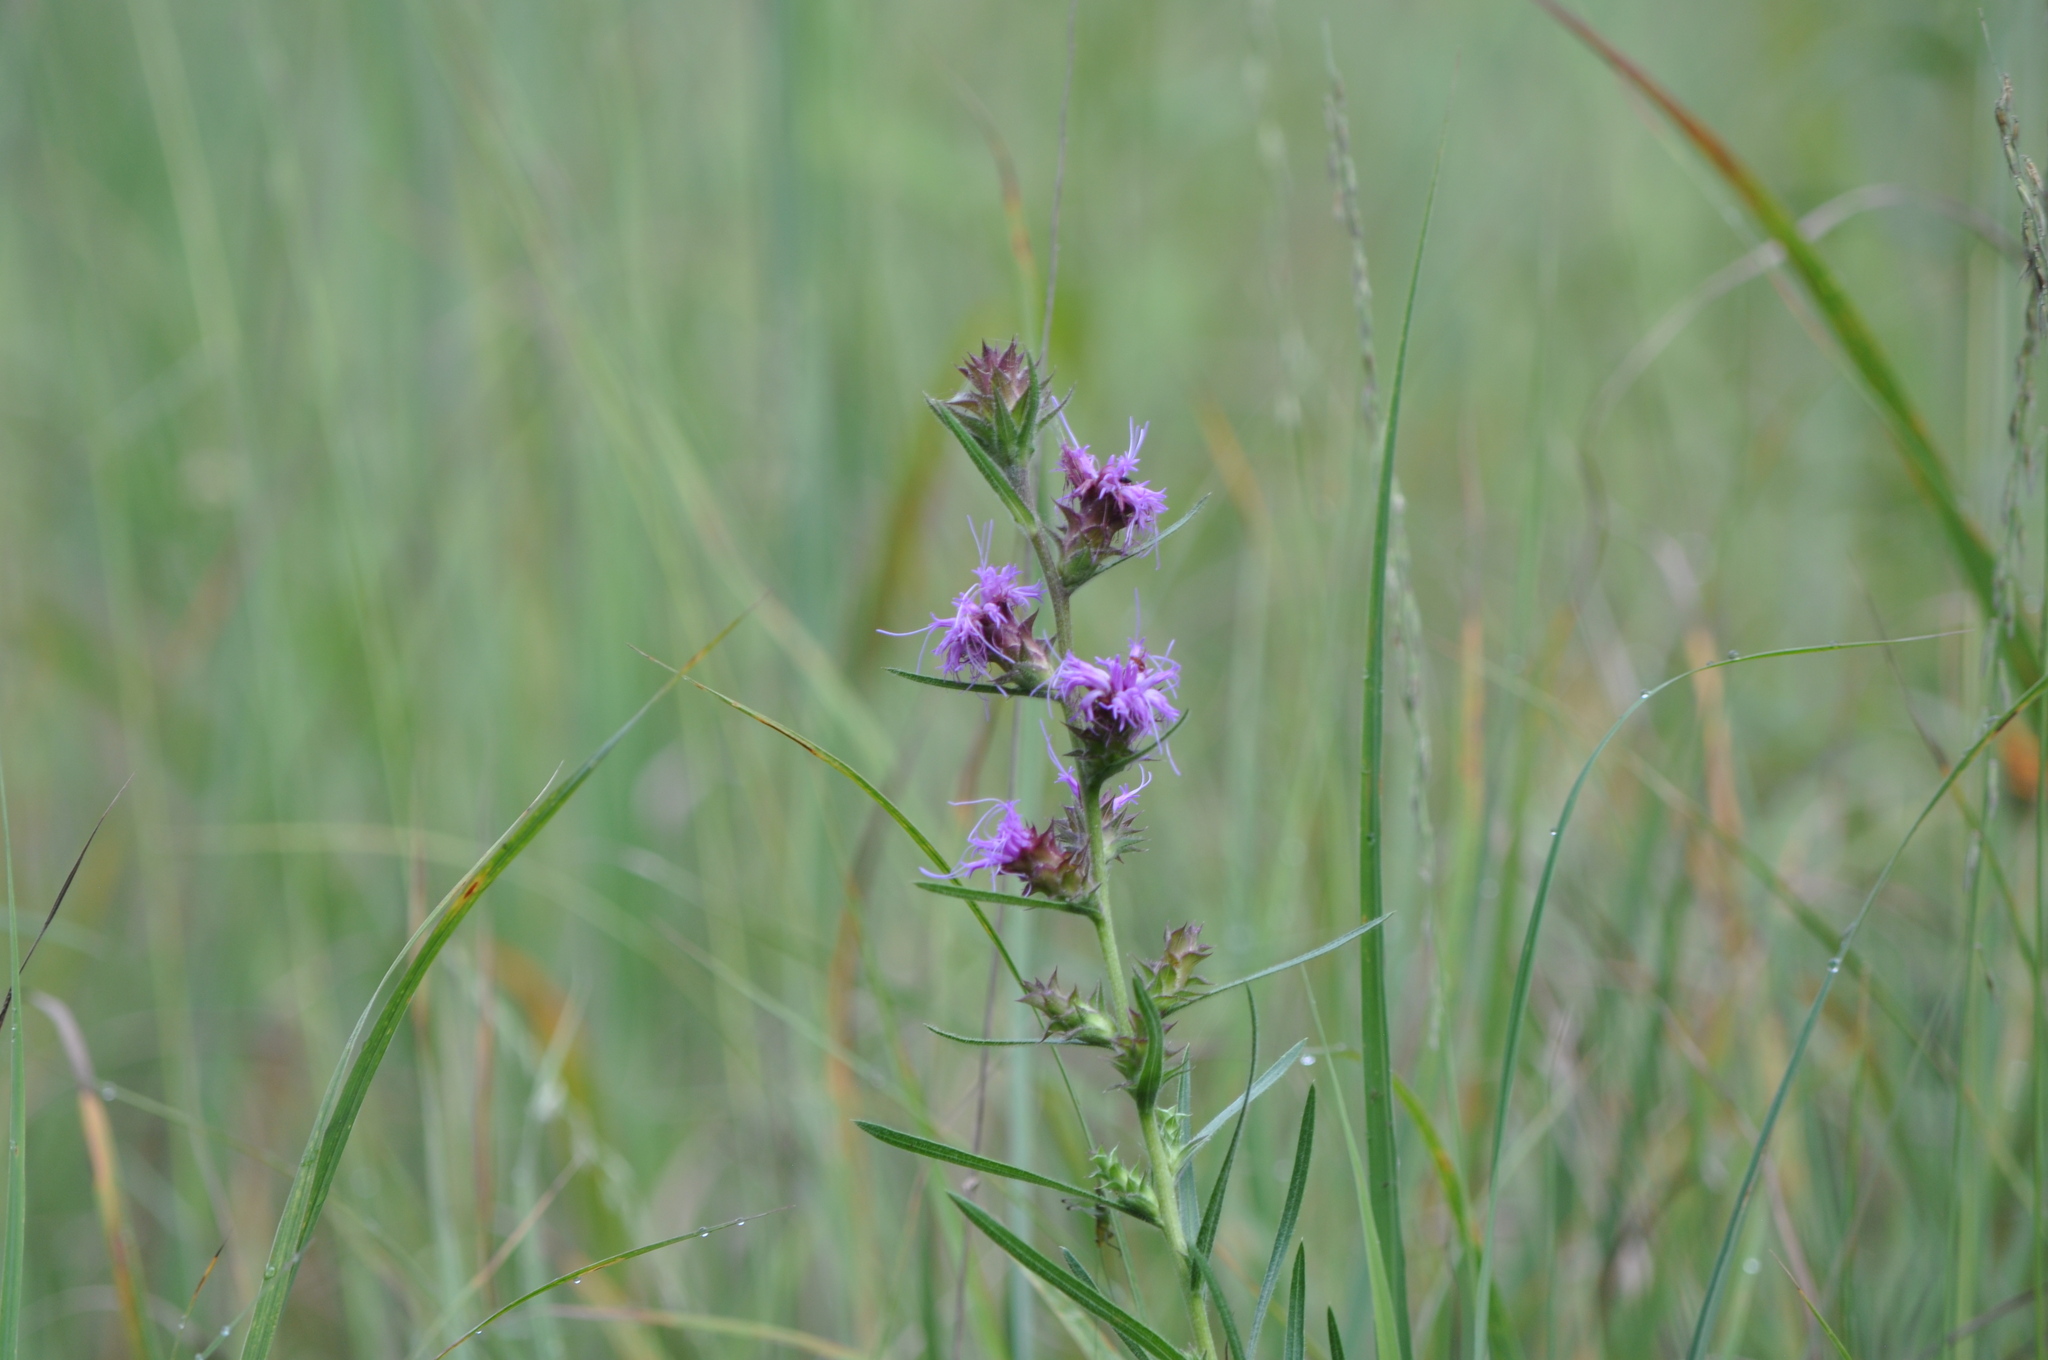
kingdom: Plantae
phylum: Tracheophyta
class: Magnoliopsida
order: Asterales
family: Asteraceae
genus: Liatris
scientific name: Liatris squarrosa
